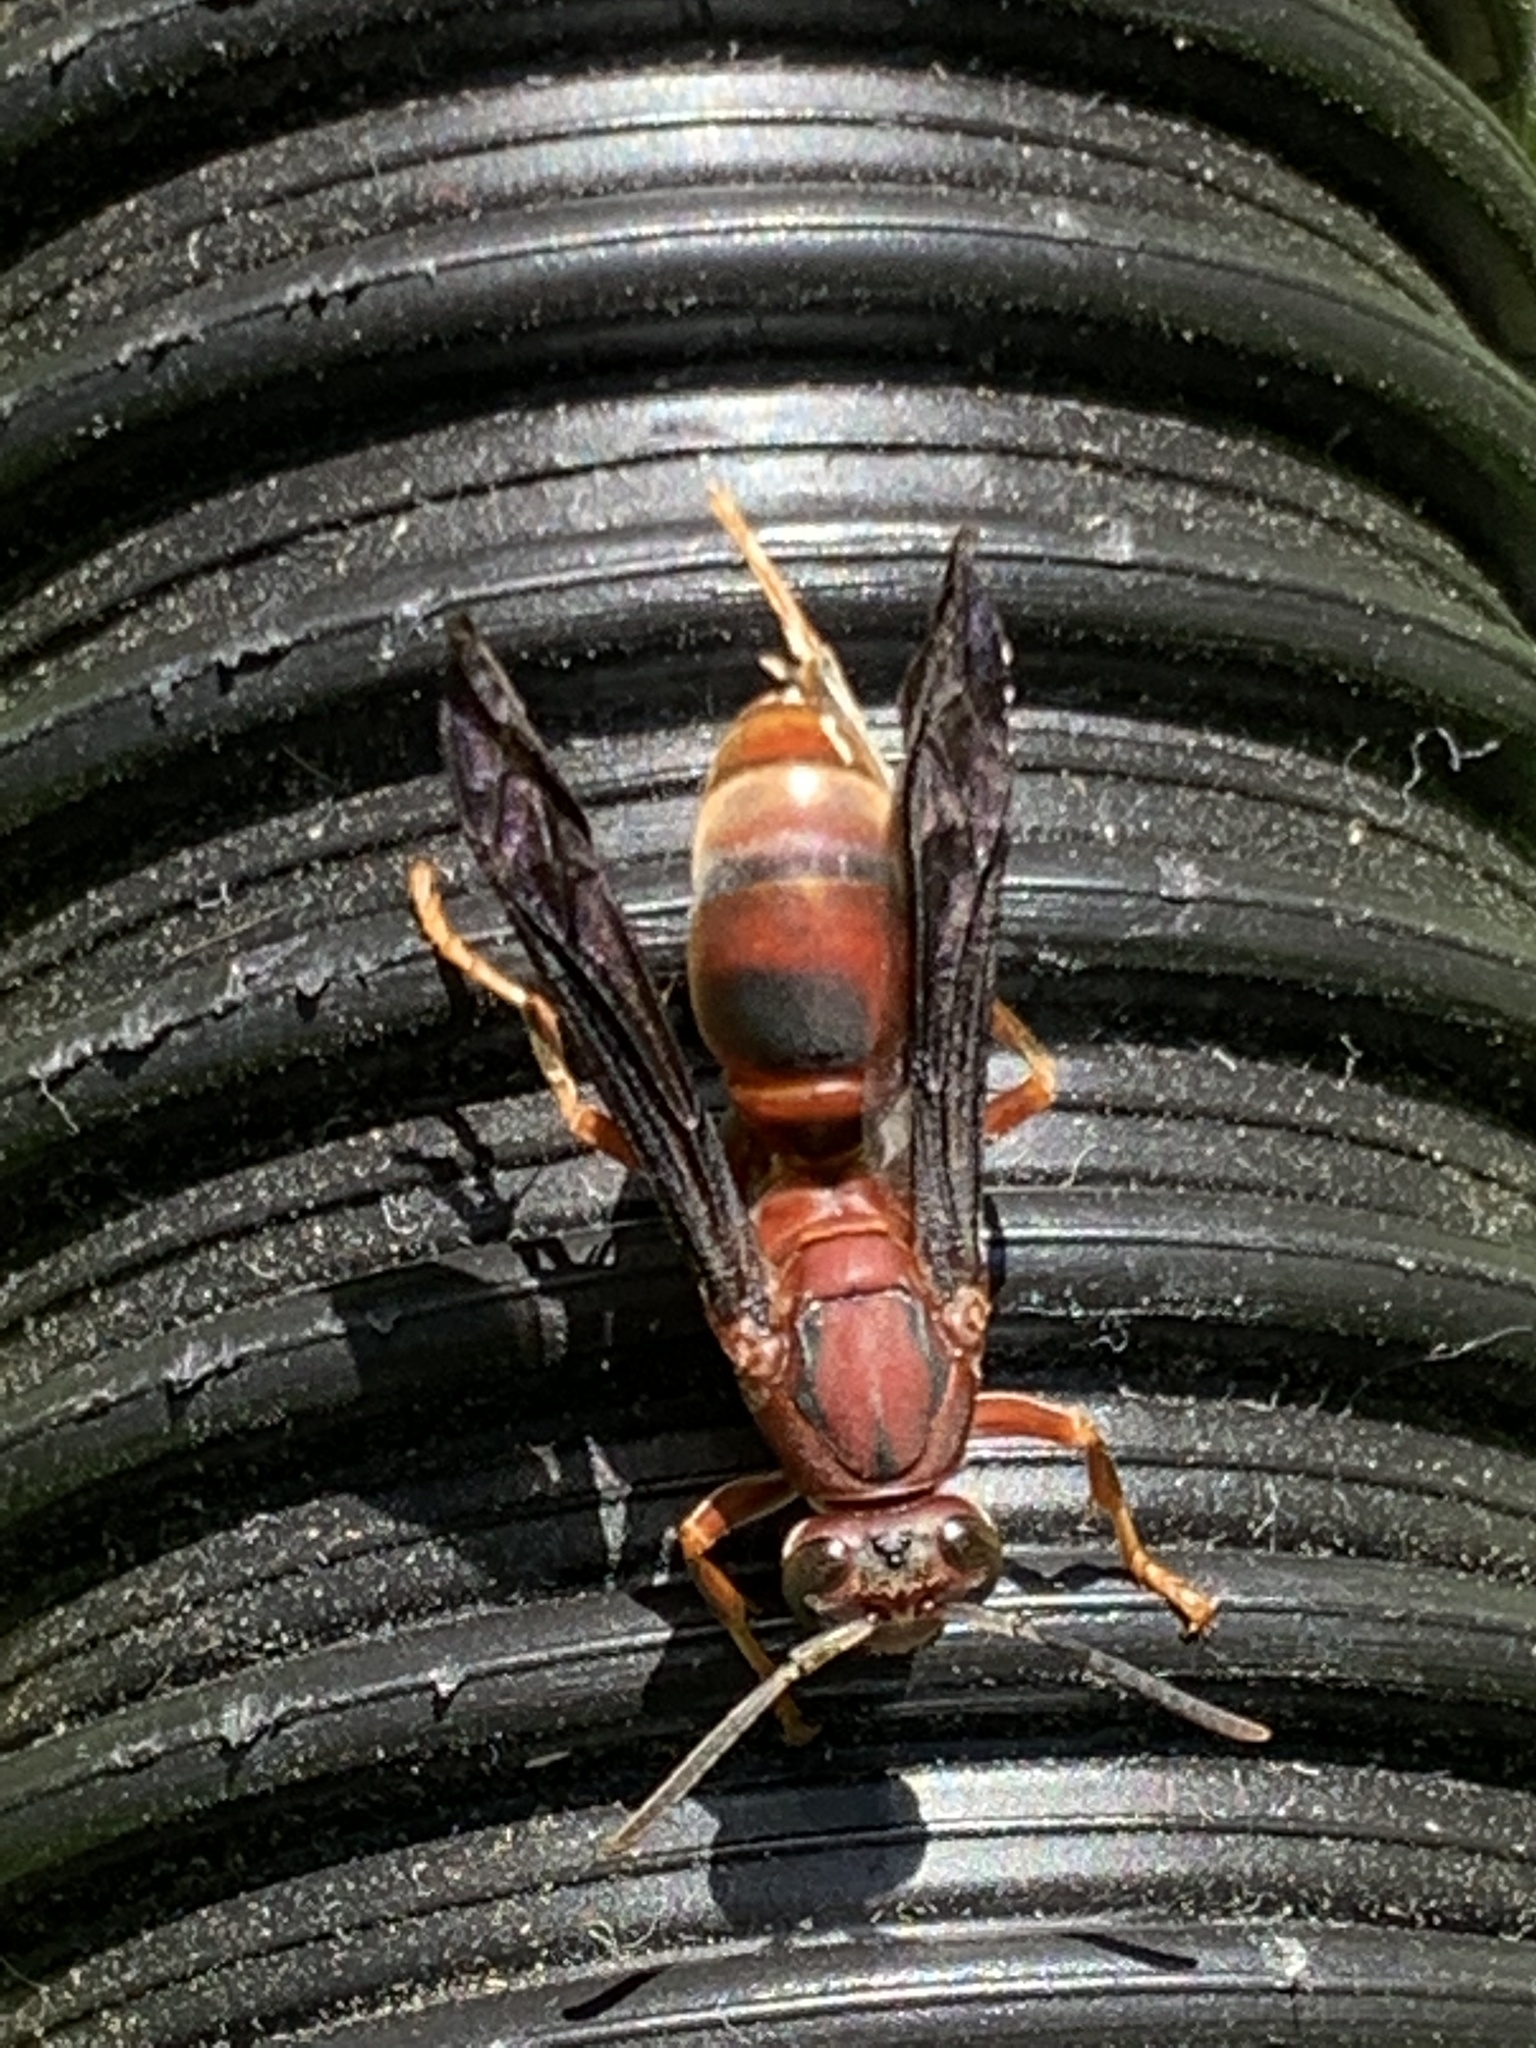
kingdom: Animalia
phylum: Arthropoda
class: Insecta
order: Hymenoptera
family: Vespidae
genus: Fuscopolistes
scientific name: Fuscopolistes
